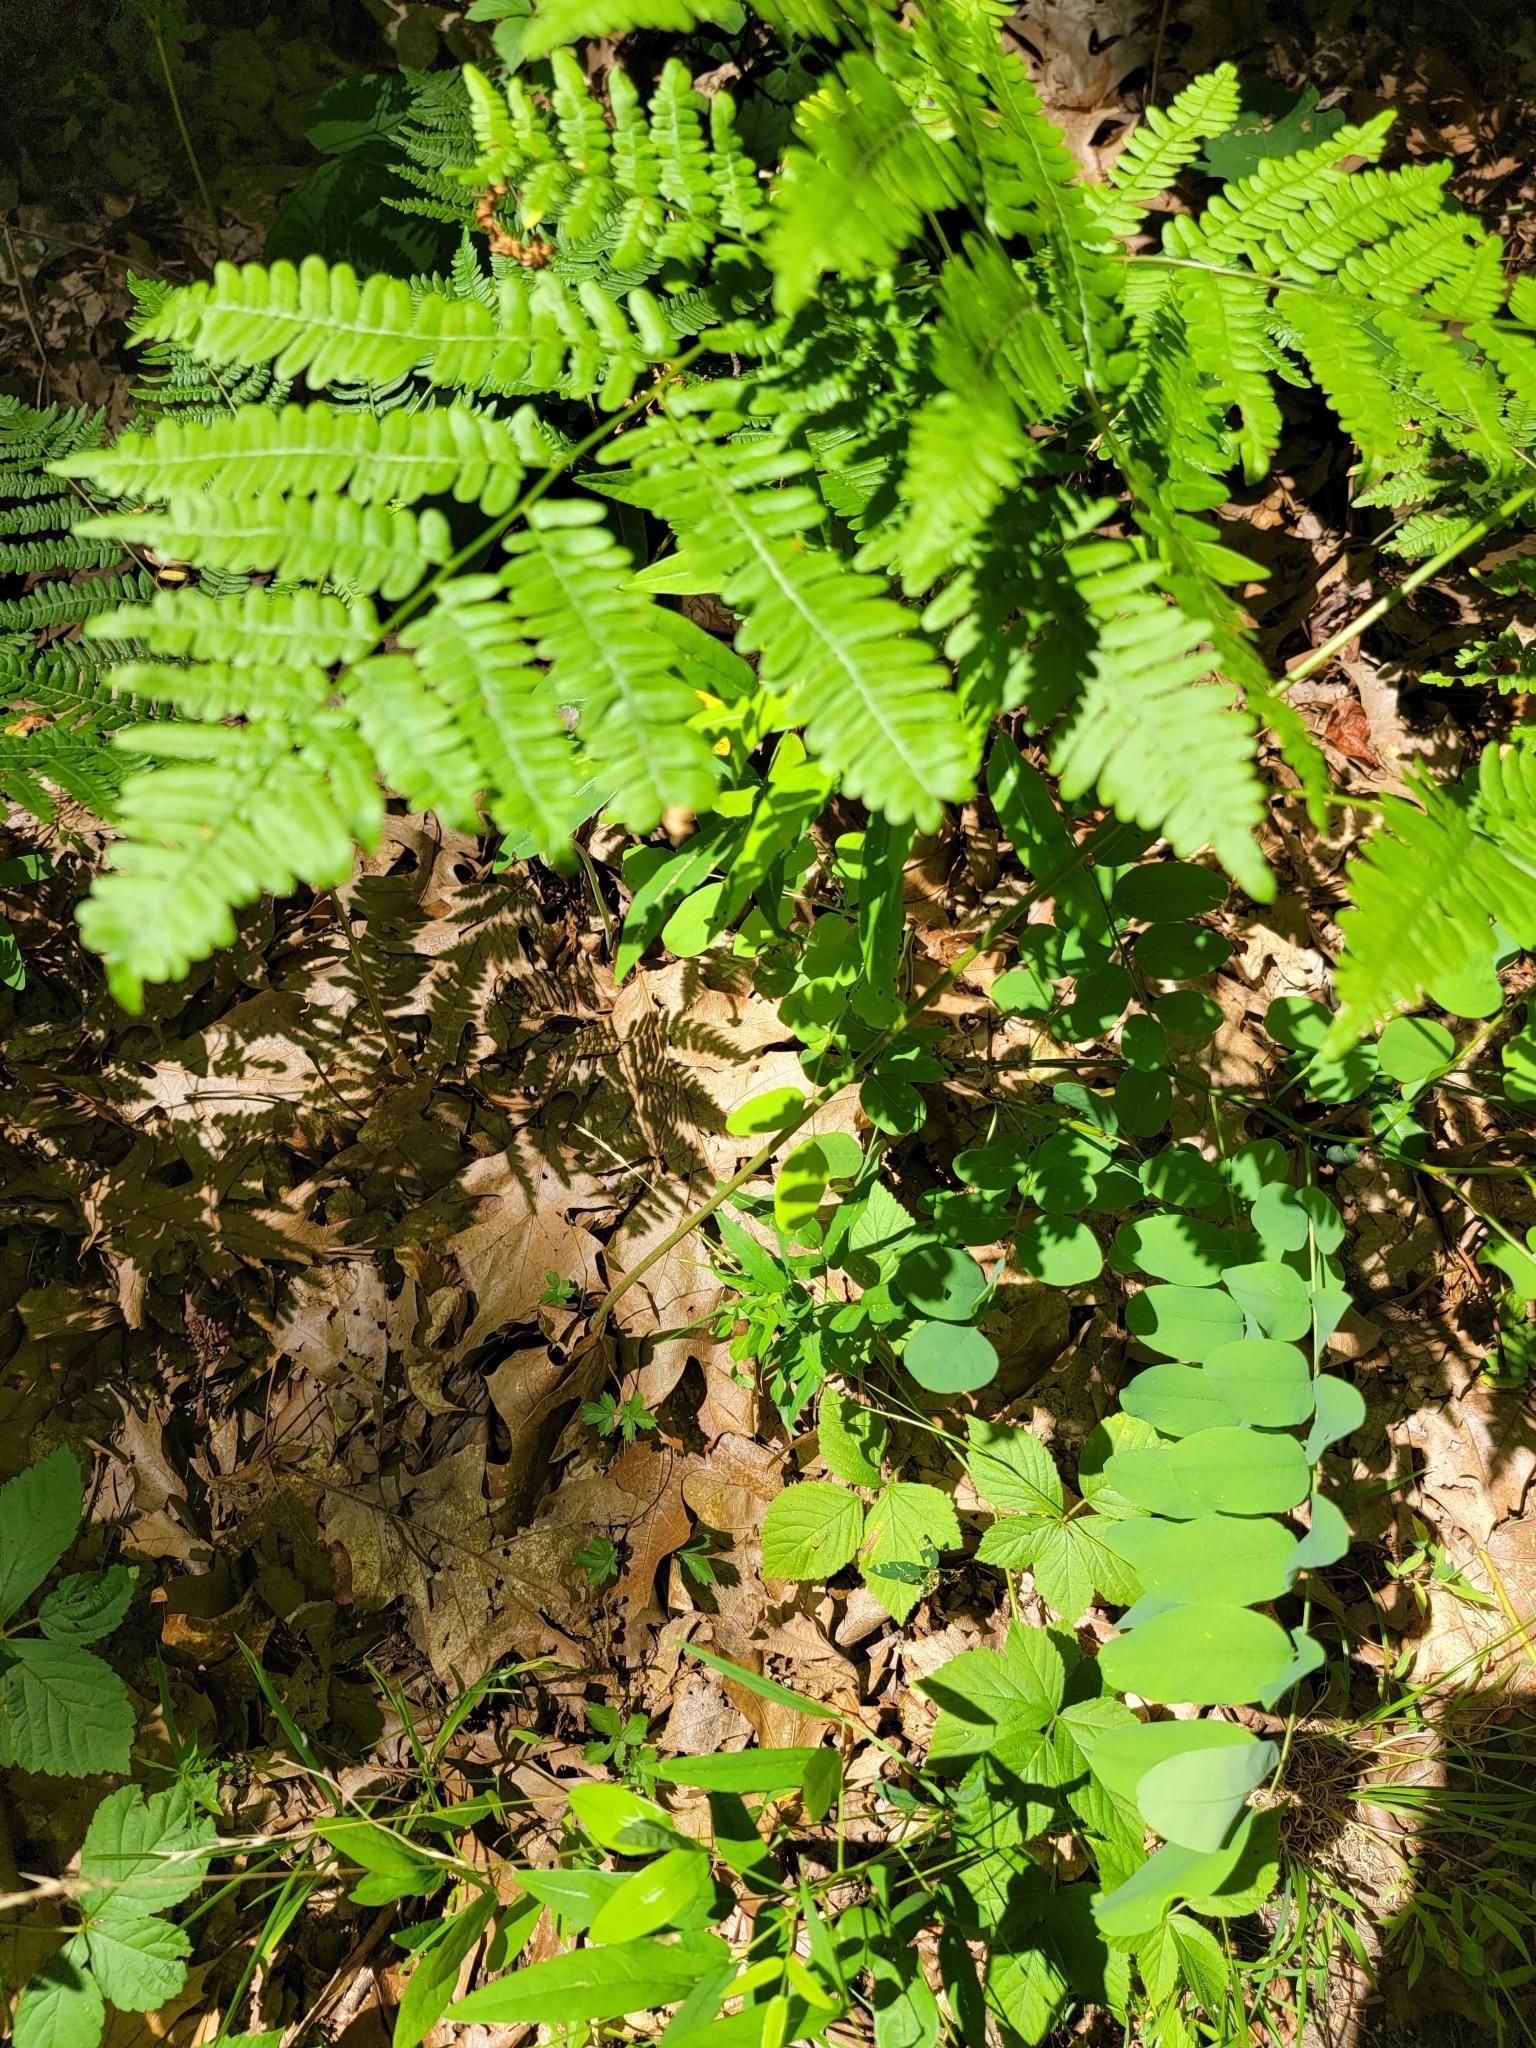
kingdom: Plantae
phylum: Tracheophyta
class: Polypodiopsida
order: Polypodiales
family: Dennstaedtiaceae
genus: Pteridium
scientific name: Pteridium aquilinum
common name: Bracken
